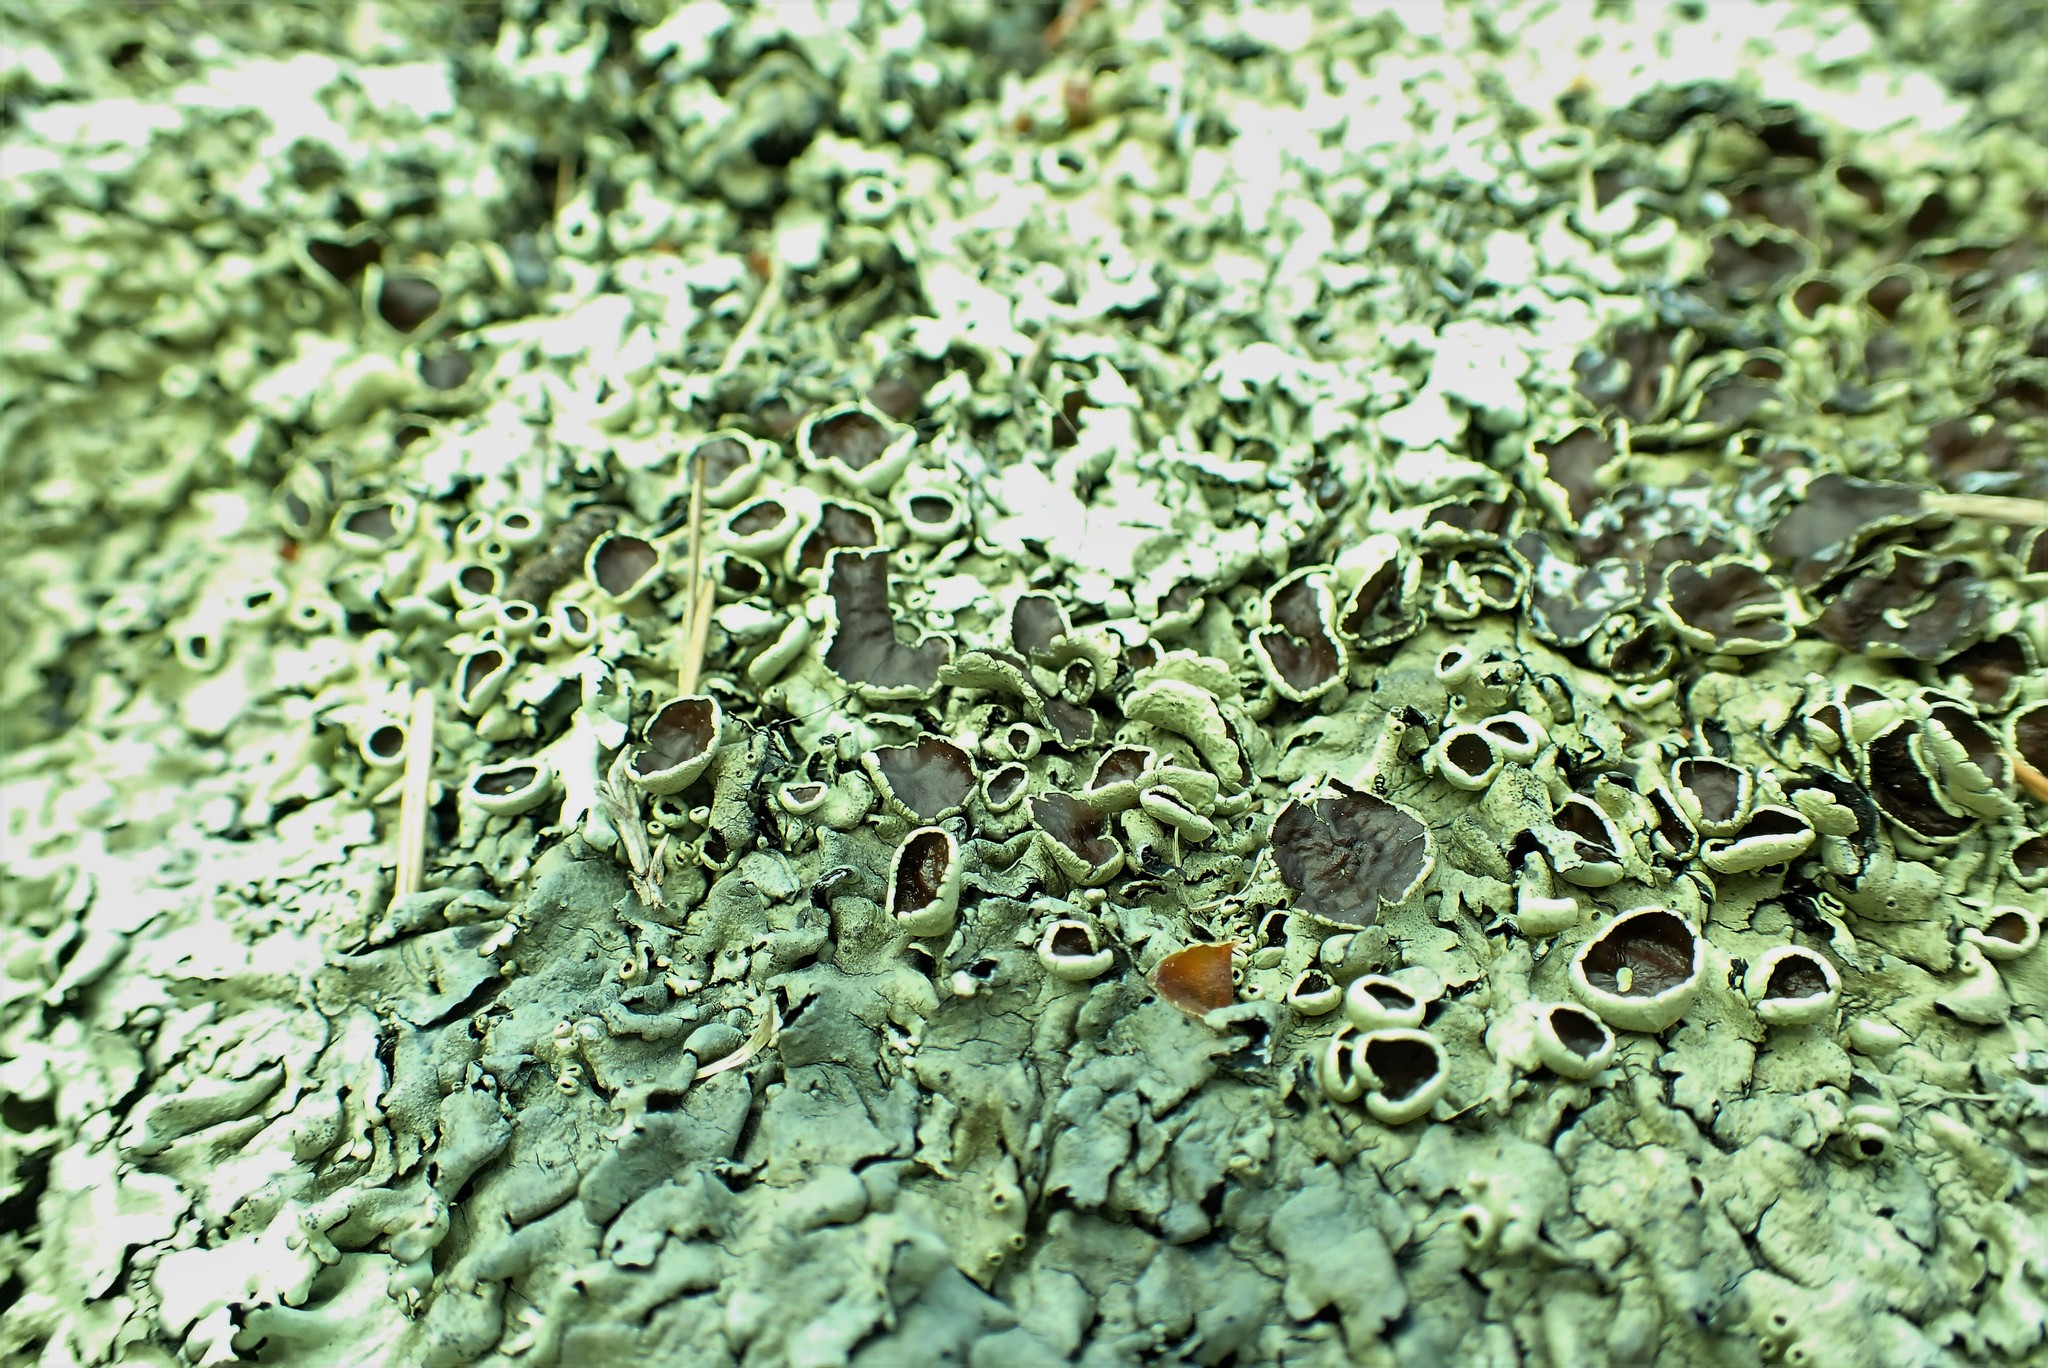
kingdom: Fungi
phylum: Ascomycota
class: Lecanoromycetes
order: Lecanorales
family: Parmeliaceae
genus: Xanthoparmelia
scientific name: Xanthoparmelia cumberlandia
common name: Cumberland rock shield
